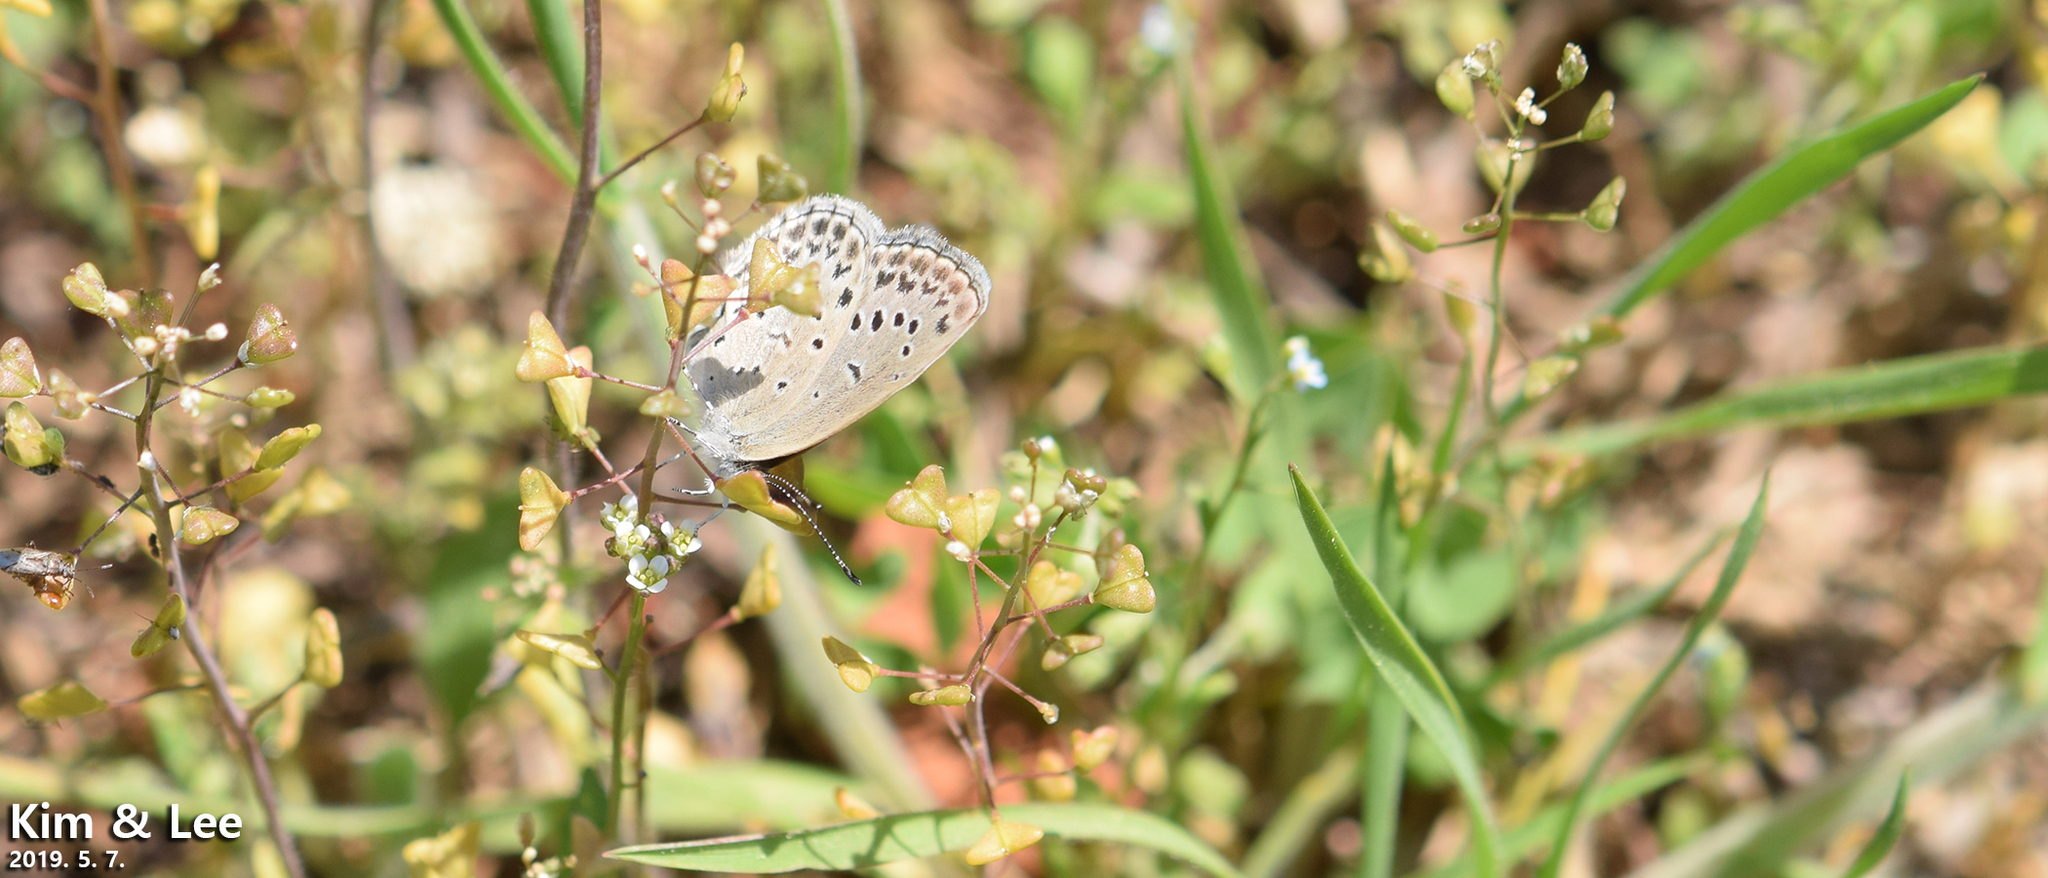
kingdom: Animalia
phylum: Arthropoda
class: Insecta
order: Lepidoptera
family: Lycaenidae
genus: Pseudozizeeria
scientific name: Pseudozizeeria maha
